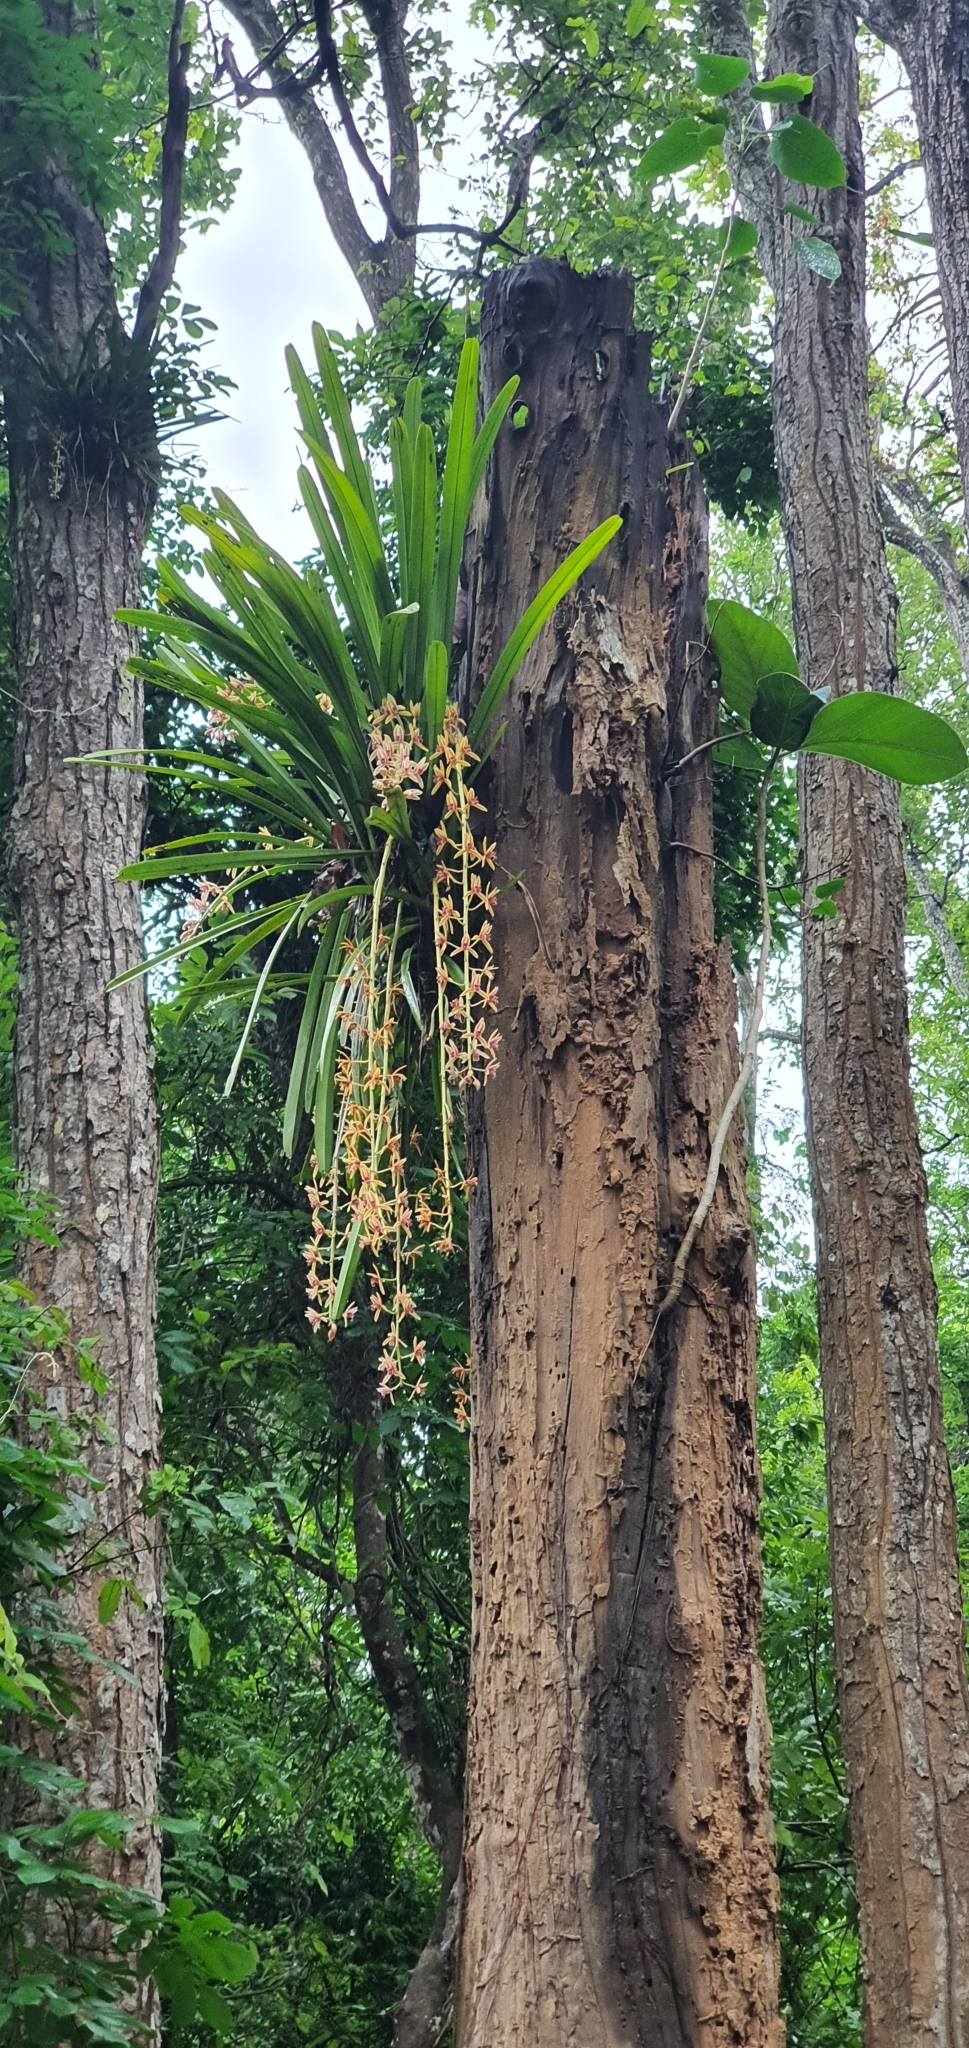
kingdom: Plantae
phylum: Tracheophyta
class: Liliopsida
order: Asparagales
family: Orchidaceae
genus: Cymbidium
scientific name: Cymbidium aloifolium
